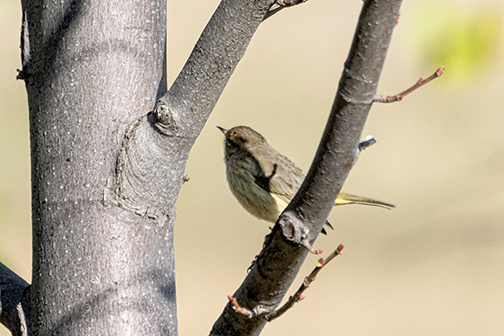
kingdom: Animalia
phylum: Chordata
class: Aves
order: Passeriformes
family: Parulidae
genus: Setophaga
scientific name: Setophaga palmarum
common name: Palm warbler
